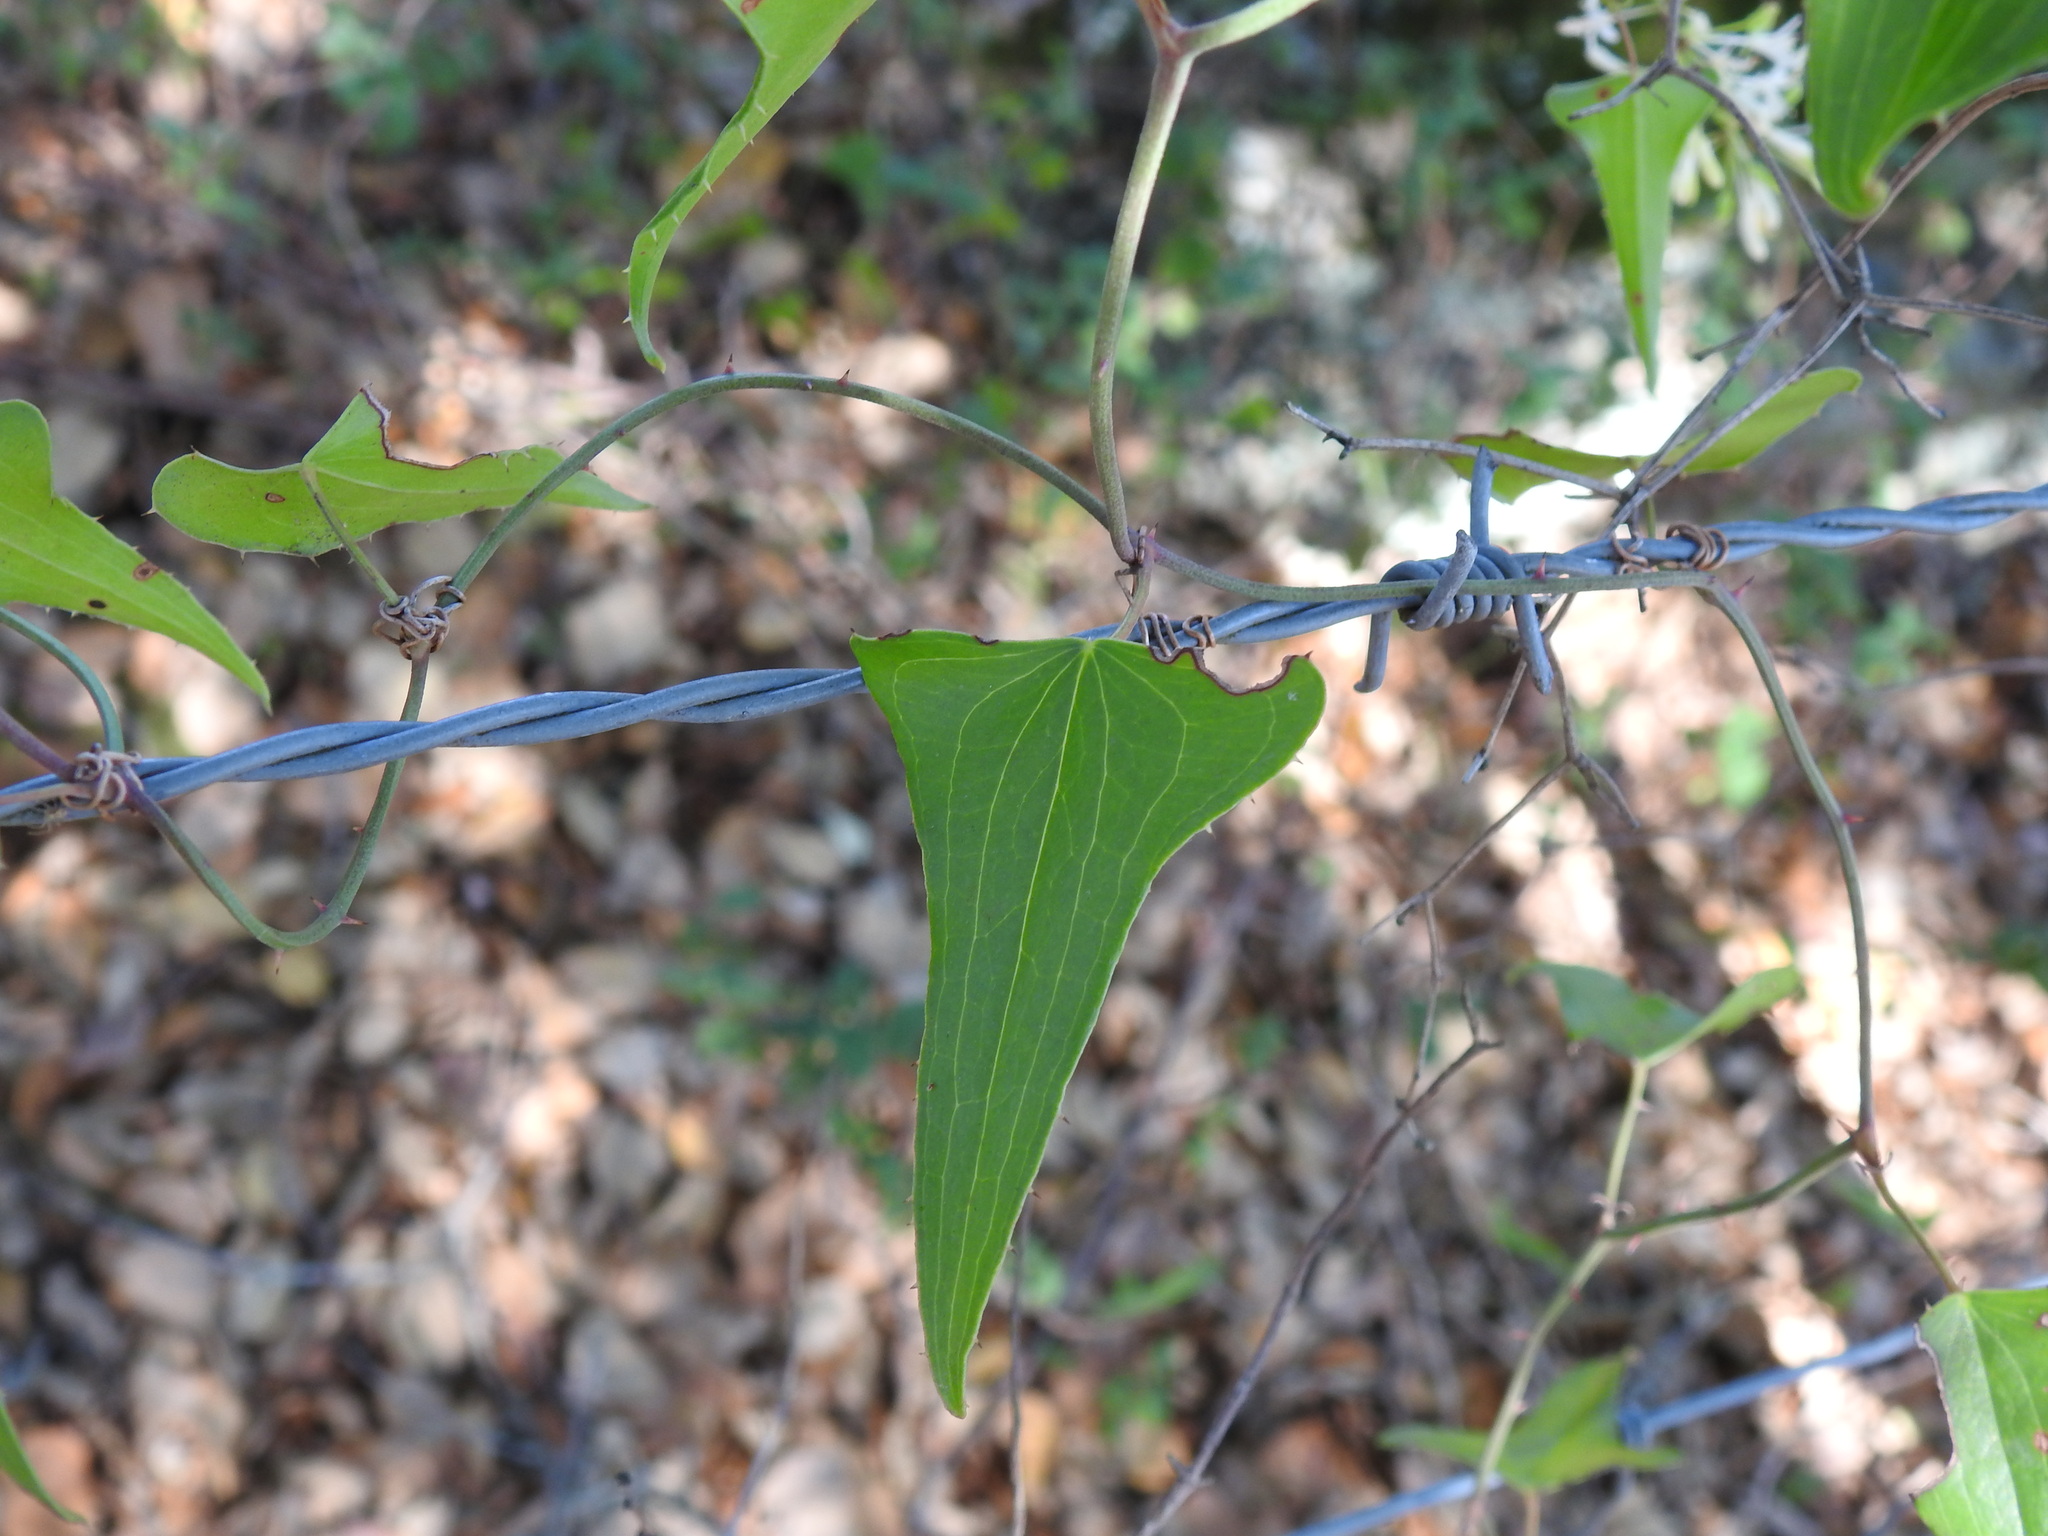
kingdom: Plantae
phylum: Tracheophyta
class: Liliopsida
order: Liliales
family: Smilacaceae
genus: Smilax
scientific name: Smilax aspera
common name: Common smilax
